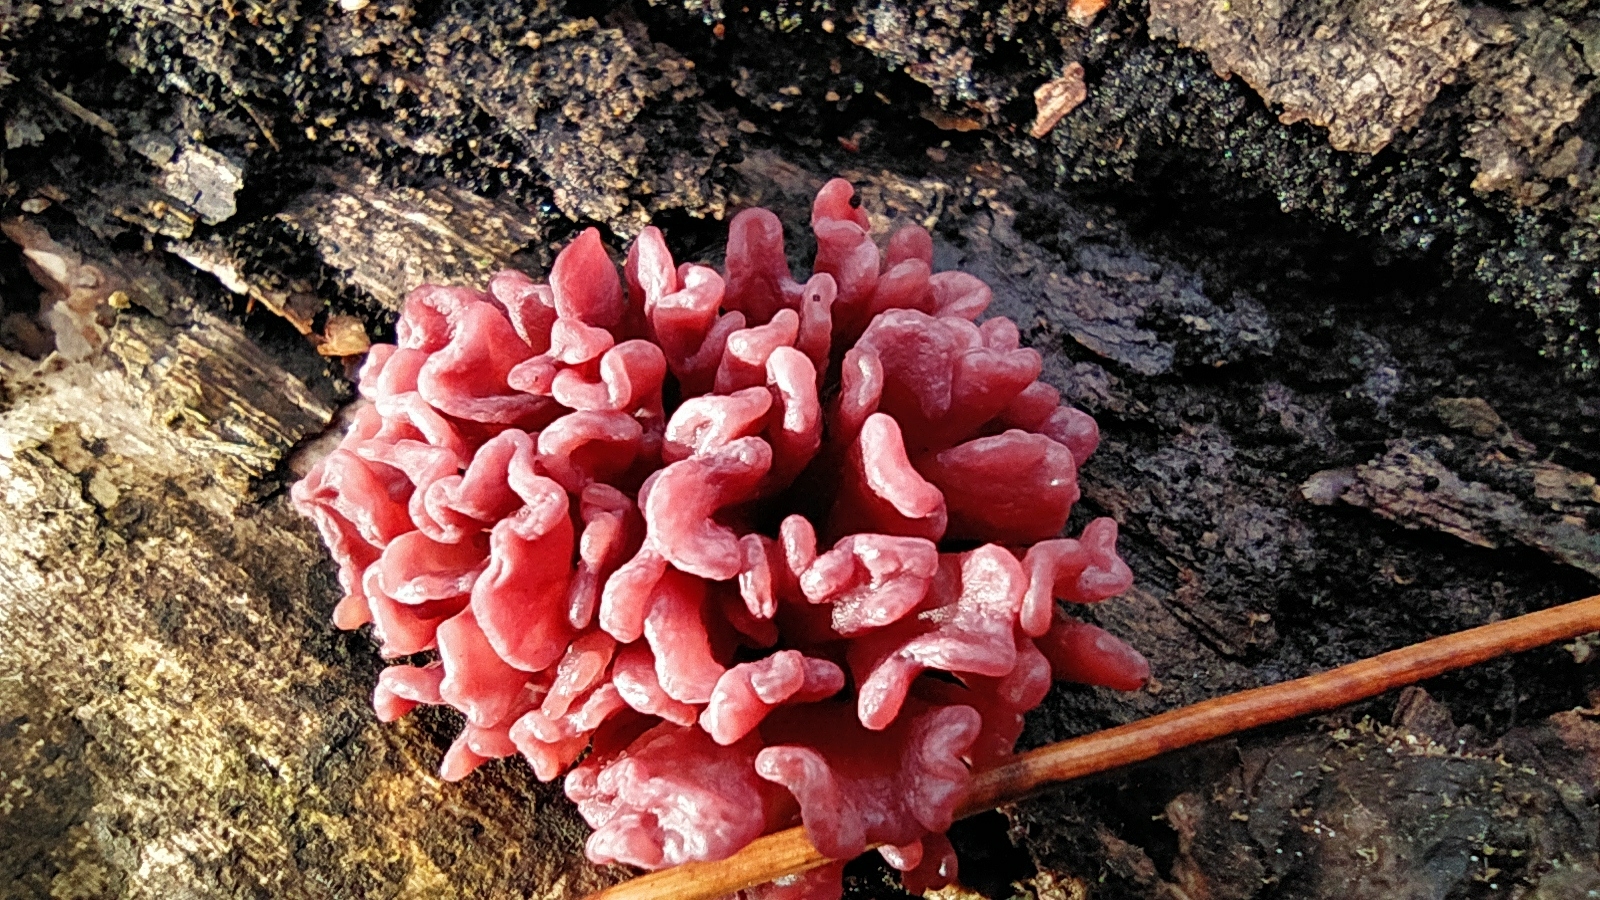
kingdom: Fungi
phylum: Ascomycota
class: Leotiomycetes
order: Helotiales
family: Gelatinodiscaceae
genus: Ascocoryne
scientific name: Ascocoryne sarcoides
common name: Purple jellydisc
